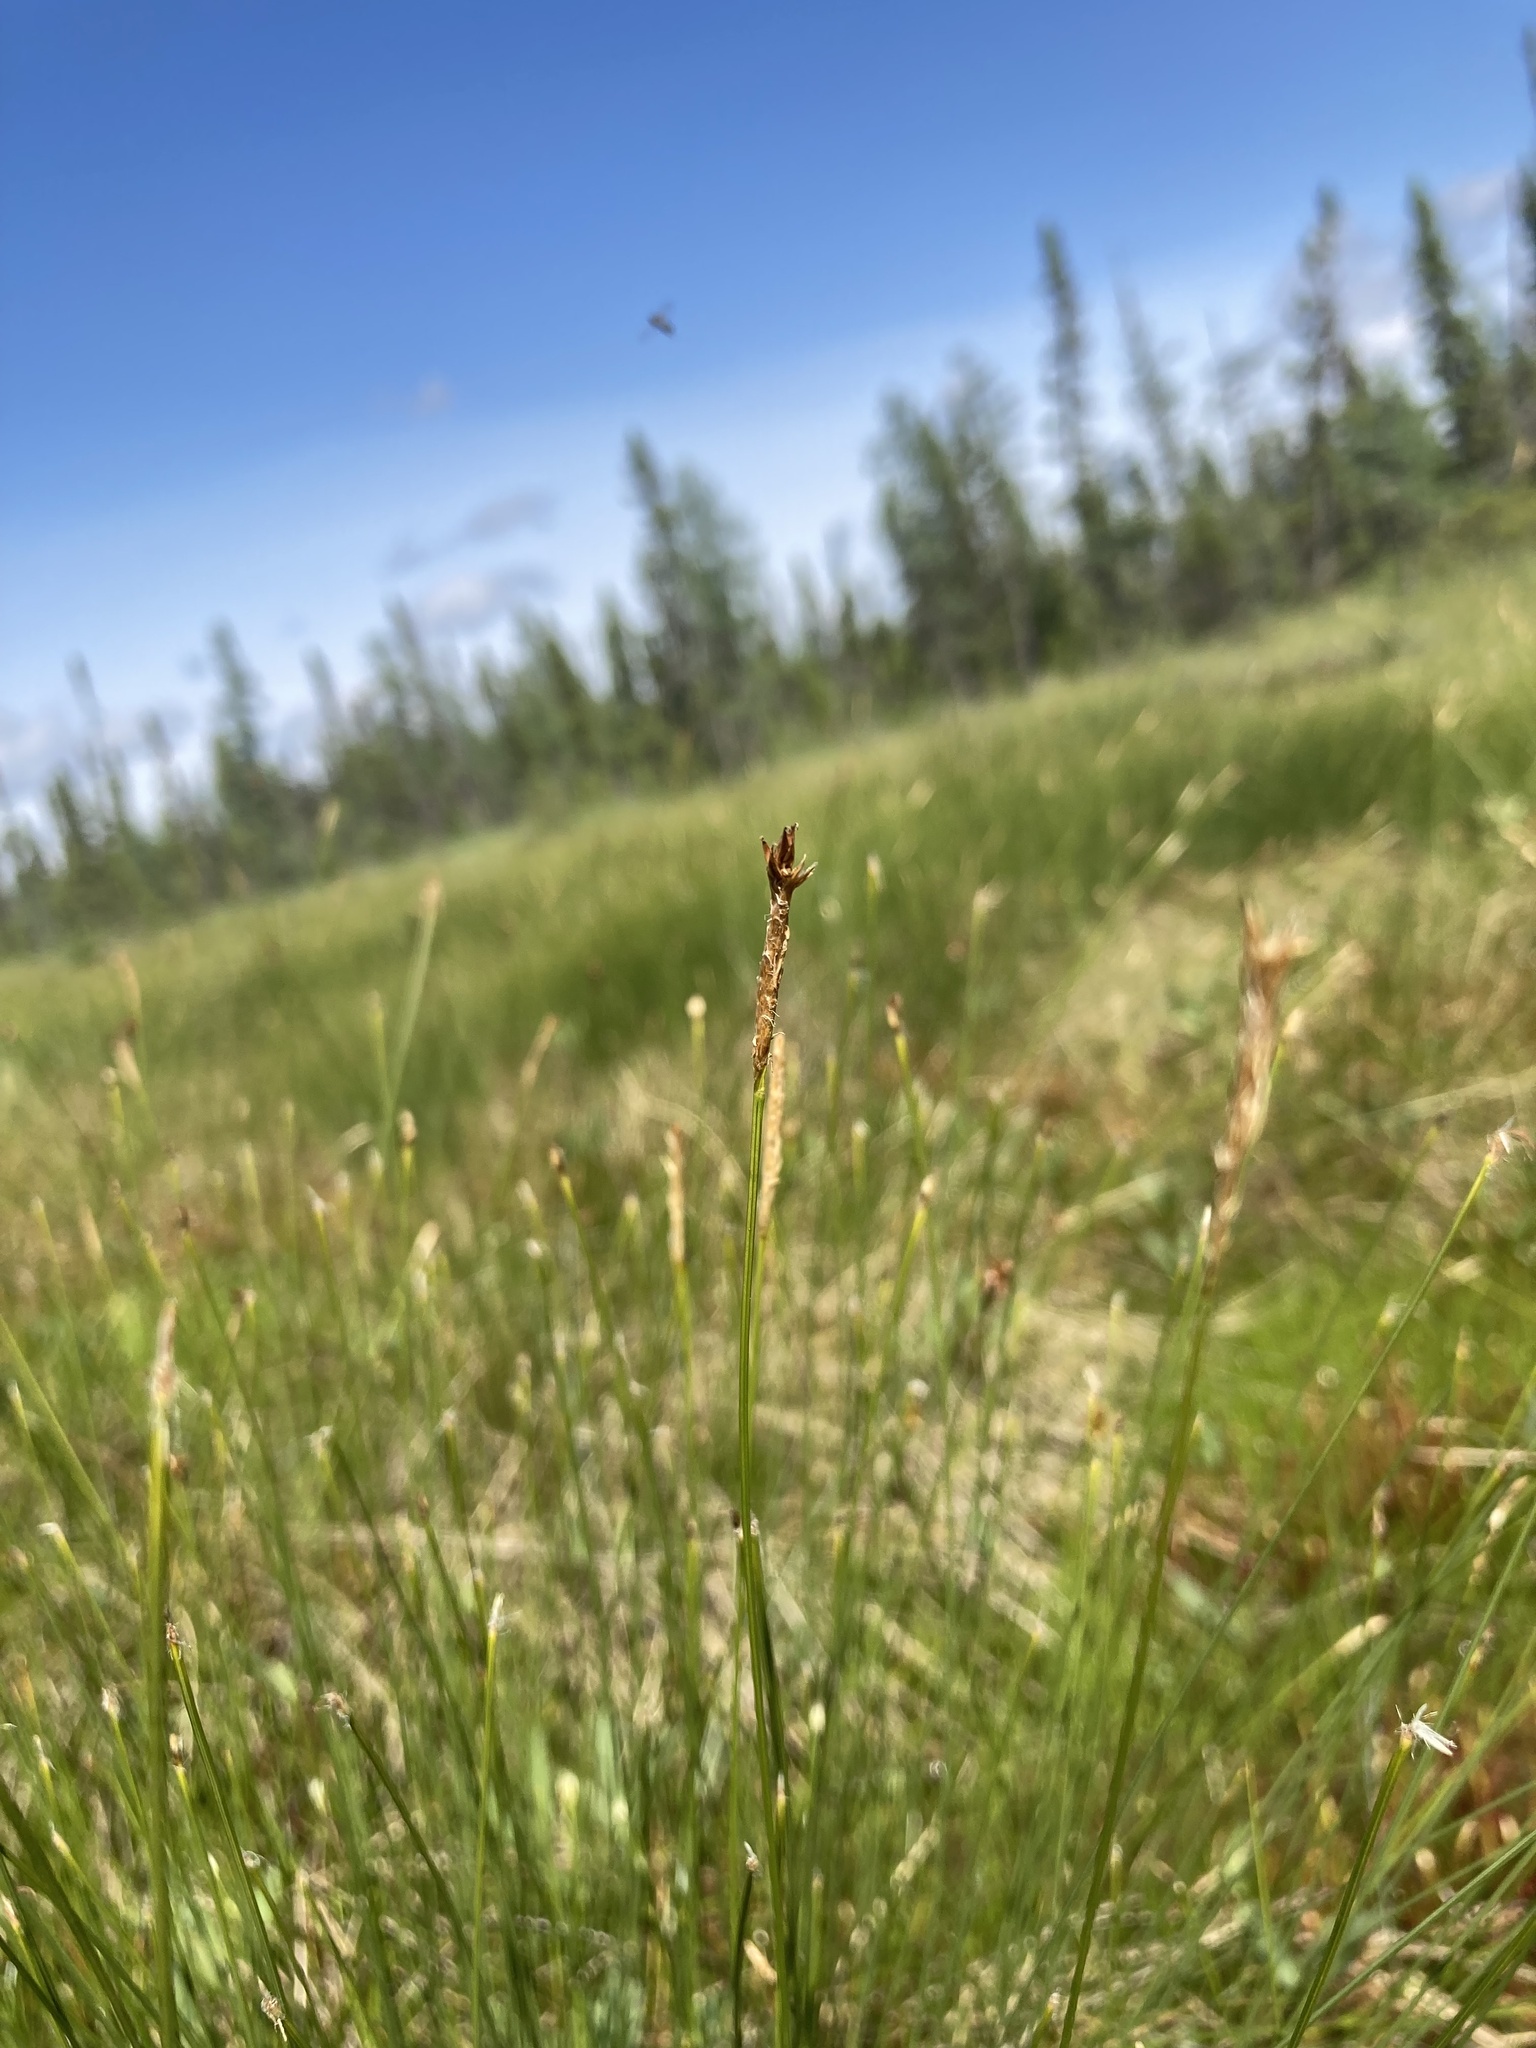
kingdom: Plantae
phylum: Tracheophyta
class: Liliopsida
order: Poales
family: Cyperaceae
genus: Carex
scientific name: Carex exilis
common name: Coastal sedge
